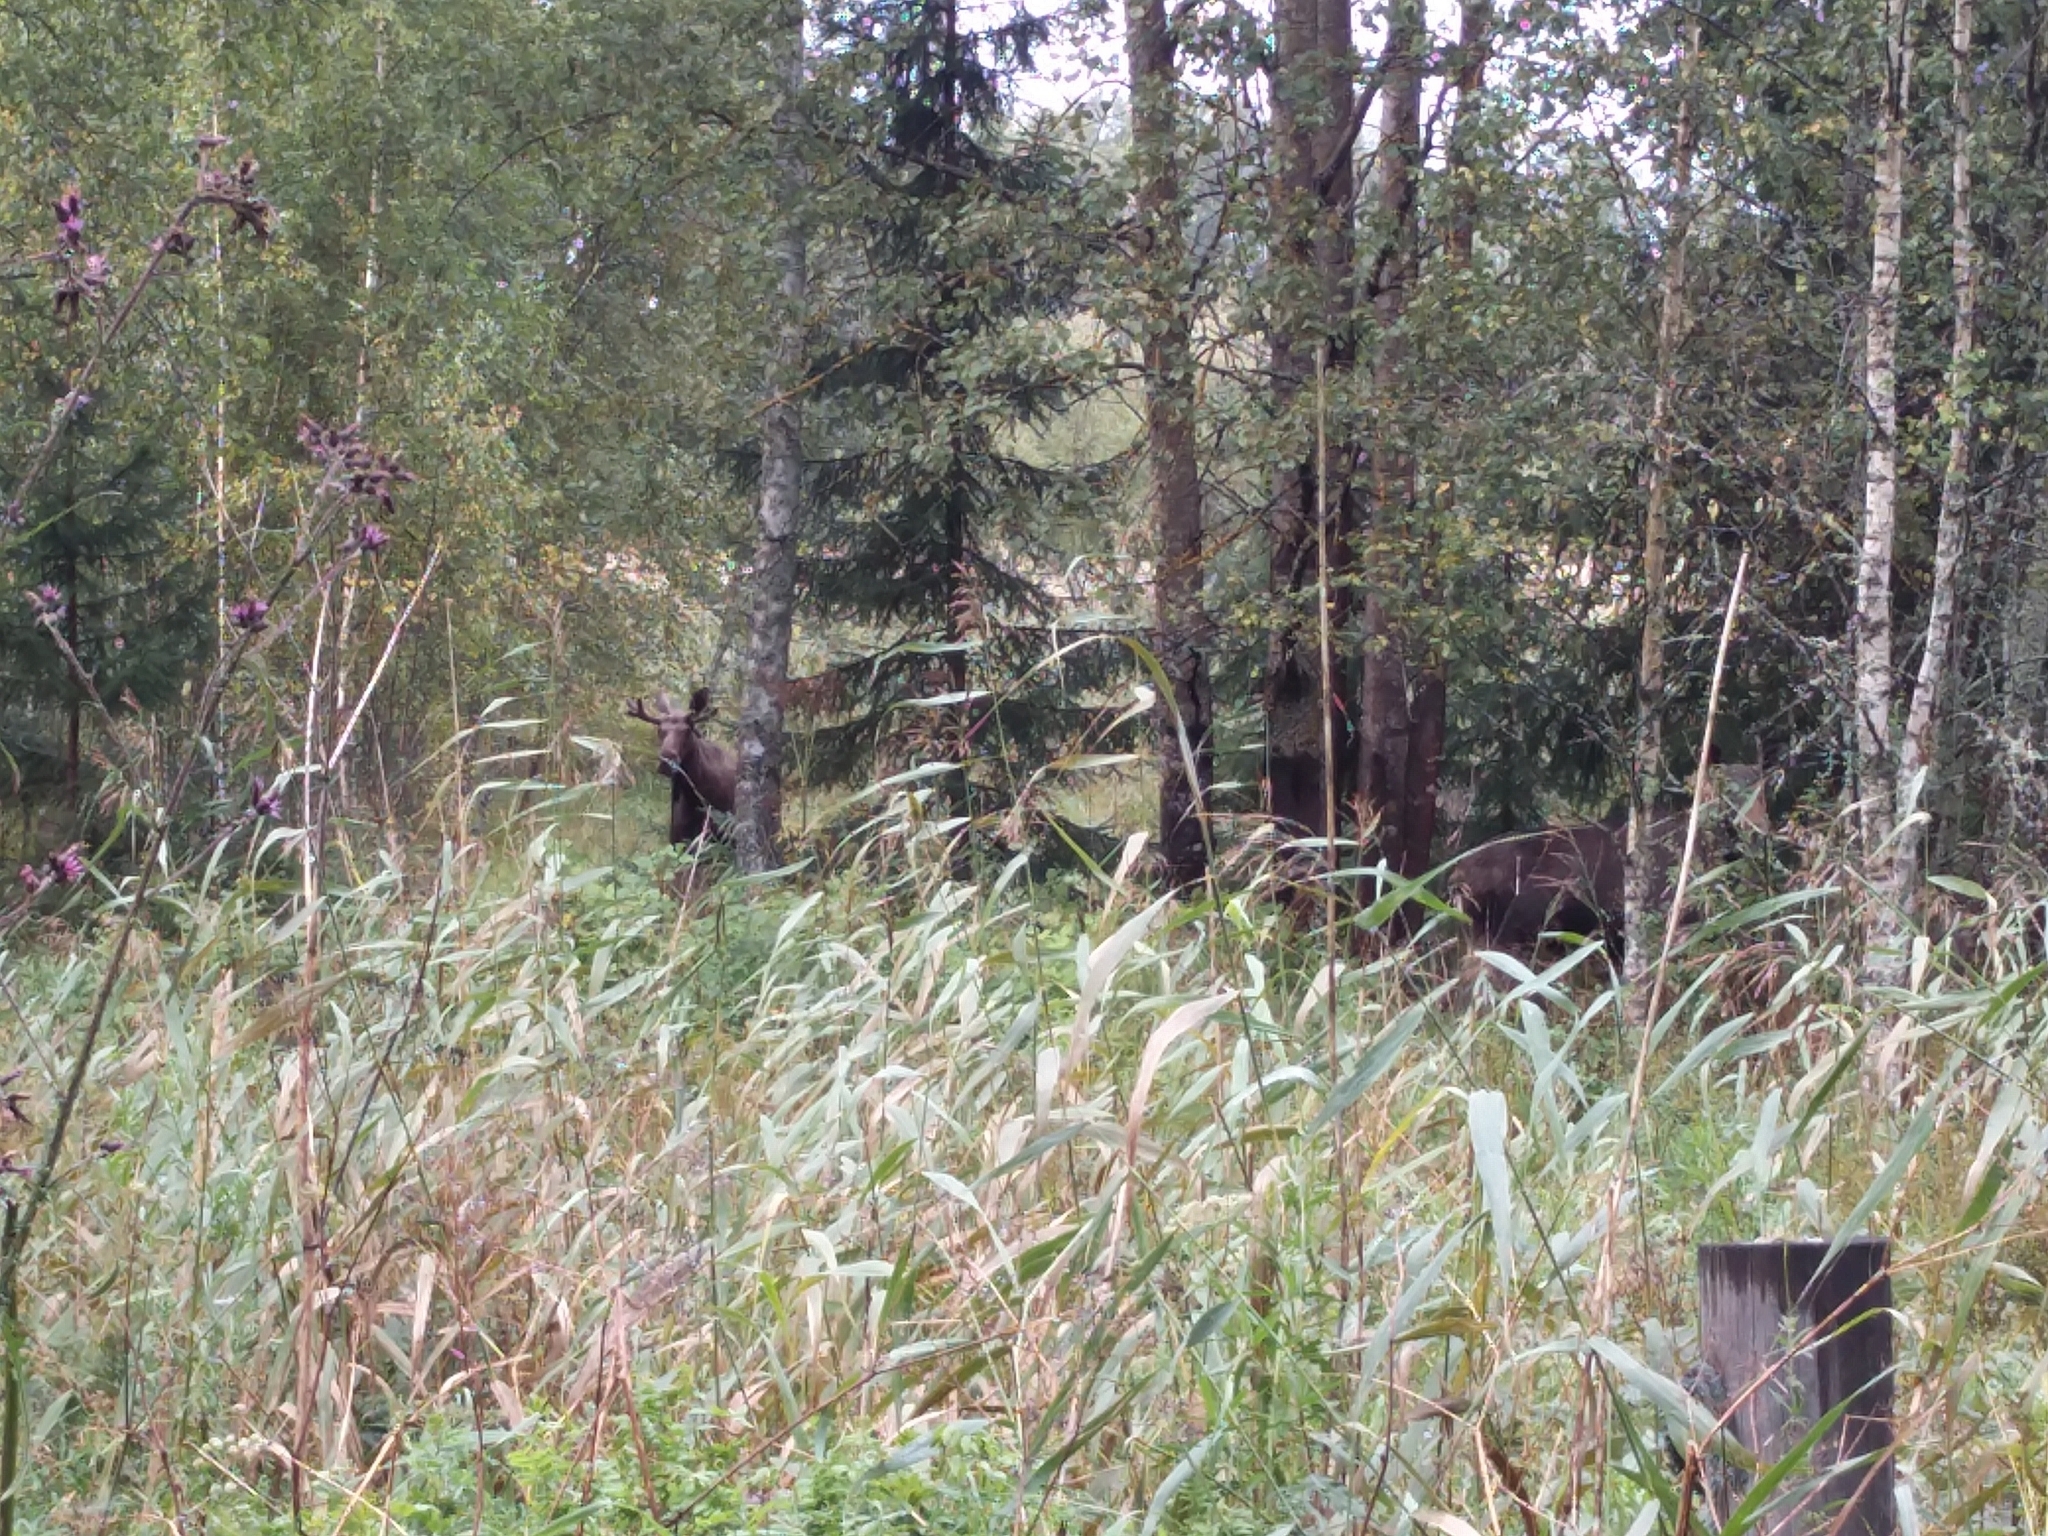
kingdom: Animalia
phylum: Chordata
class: Mammalia
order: Artiodactyla
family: Cervidae
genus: Alces
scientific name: Alces alces
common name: Moose
